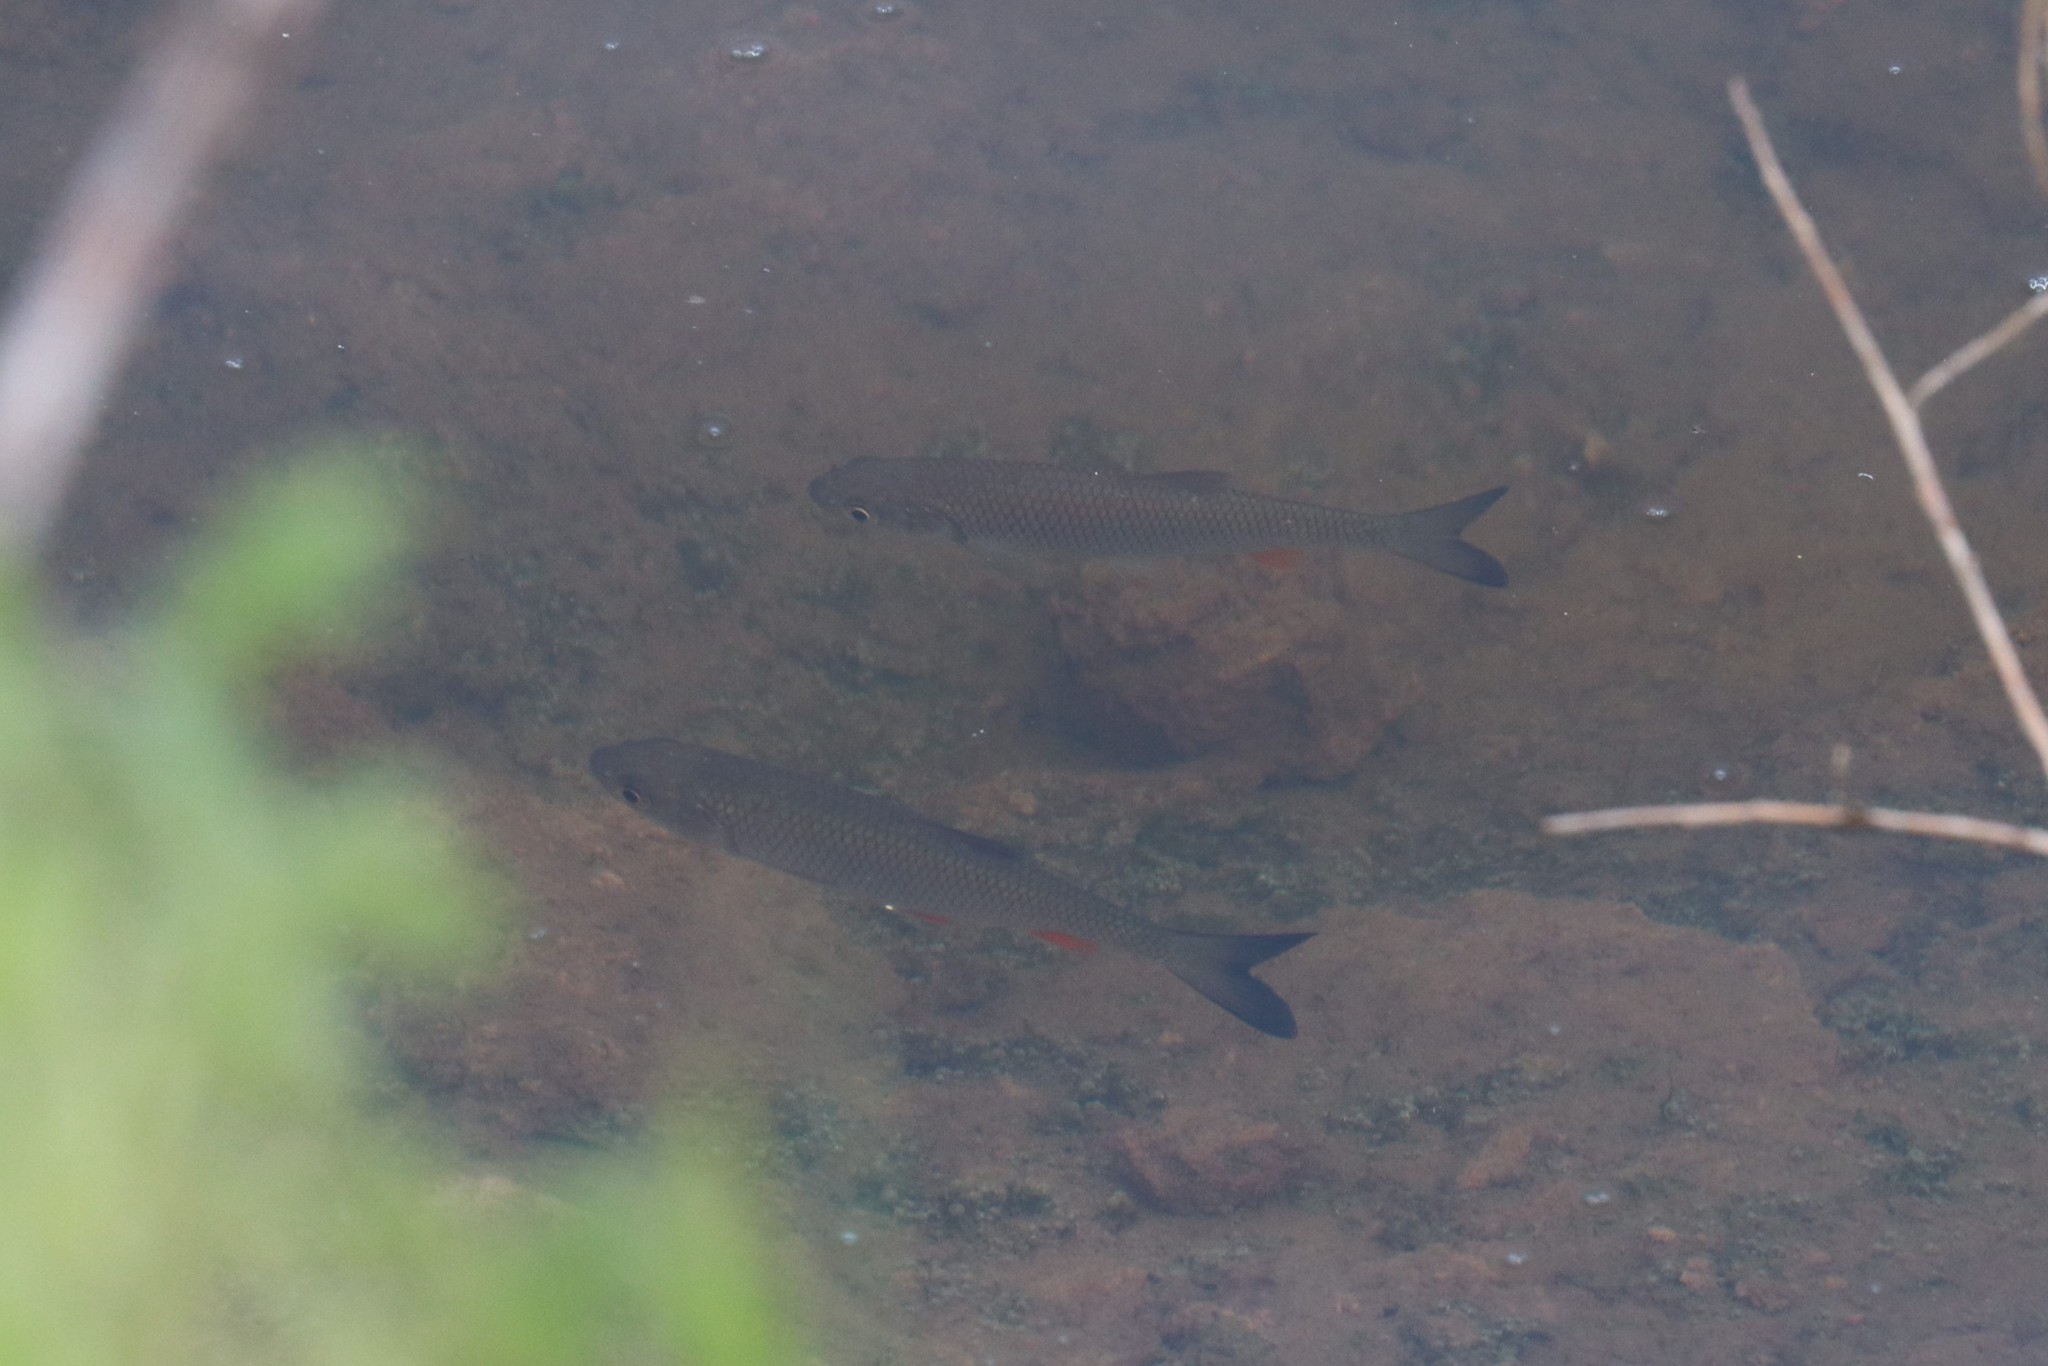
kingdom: Animalia
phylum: Chordata
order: Cypriniformes
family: Cyprinidae
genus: Squalius
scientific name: Squalius cephalus
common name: Chub
